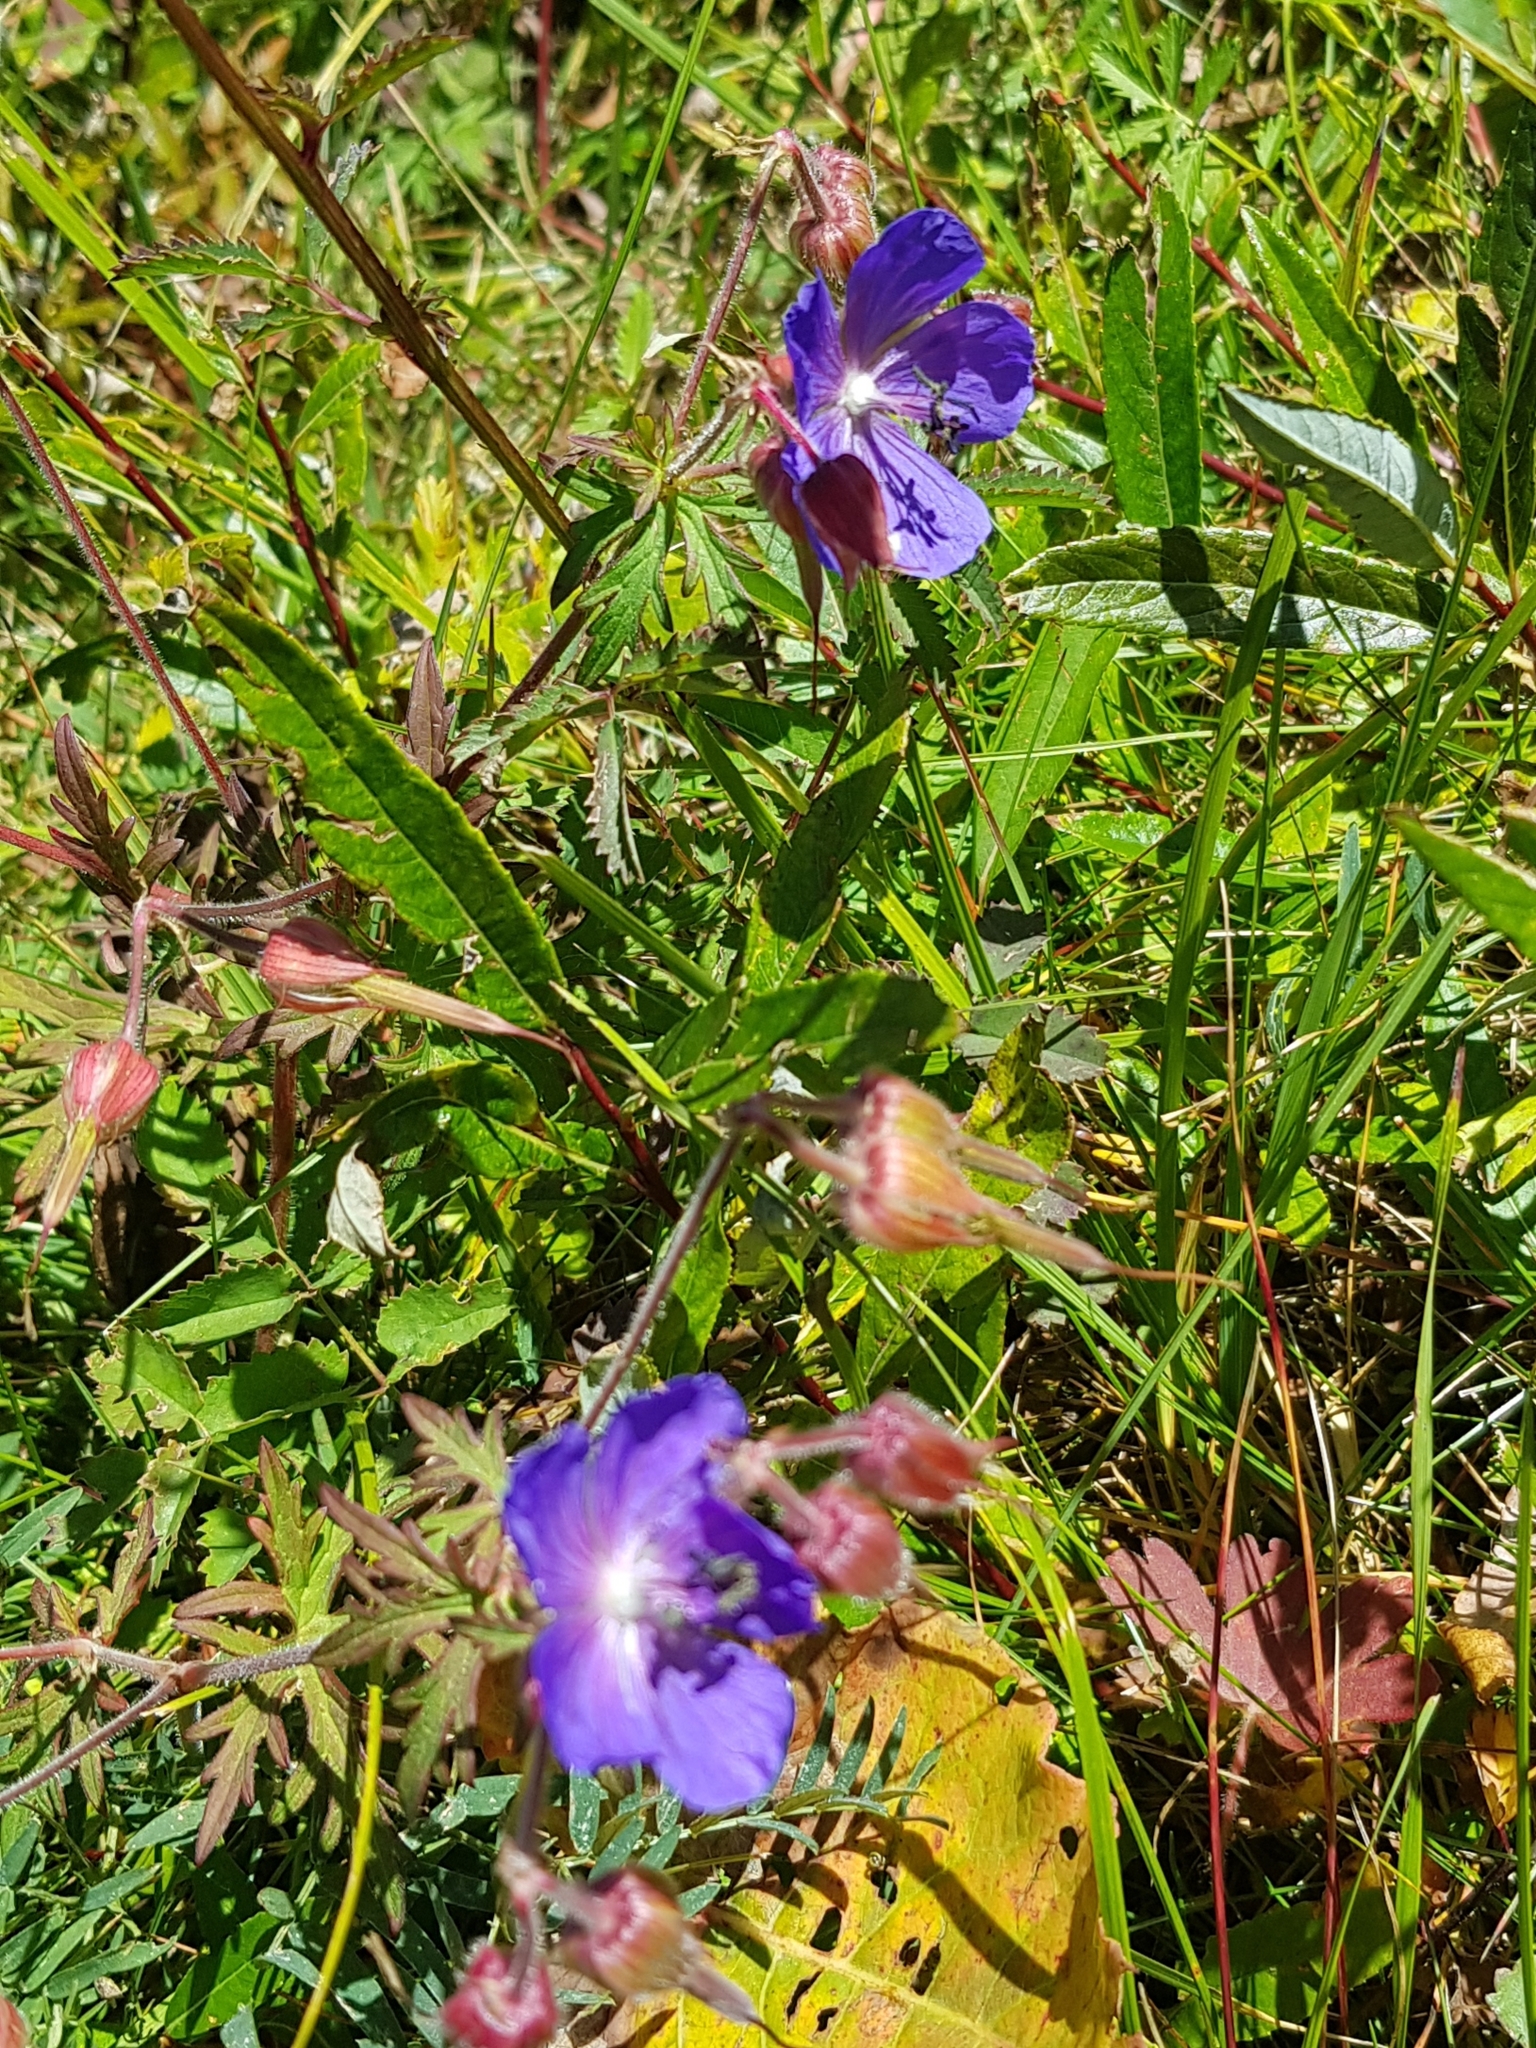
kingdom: Plantae
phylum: Tracheophyta
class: Magnoliopsida
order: Geraniales
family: Geraniaceae
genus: Geranium
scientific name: Geranium pratense
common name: Meadow crane's-bill
